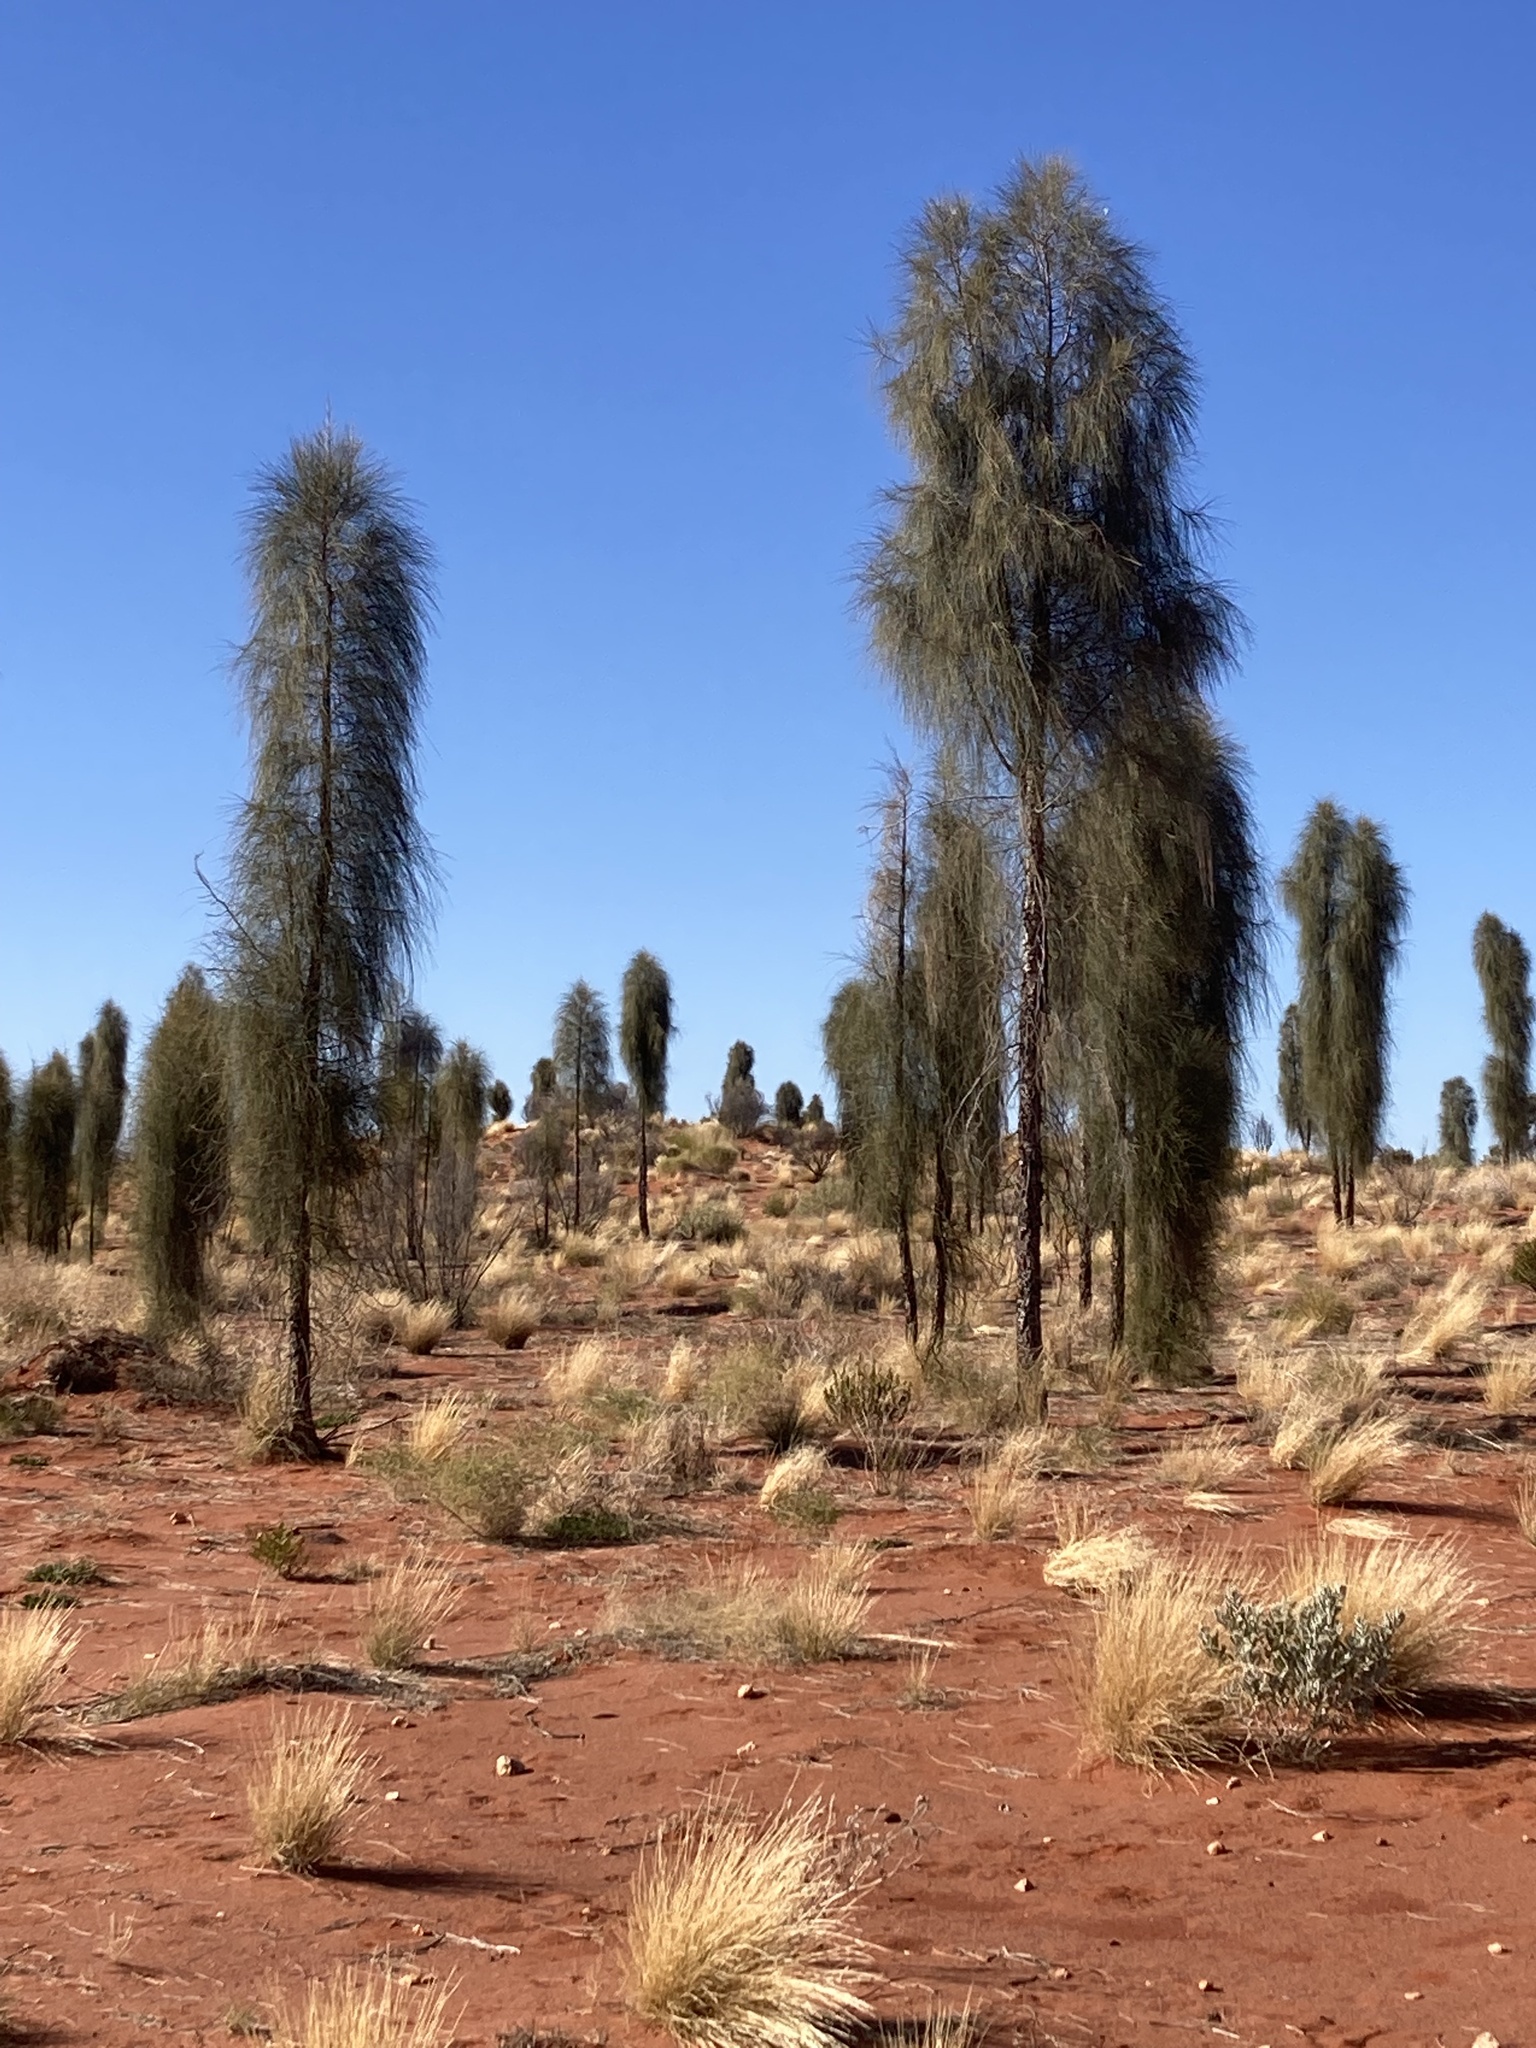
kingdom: Plantae
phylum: Tracheophyta
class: Magnoliopsida
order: Fagales
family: Casuarinaceae
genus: Allocasuarina
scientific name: Allocasuarina decaisneana
